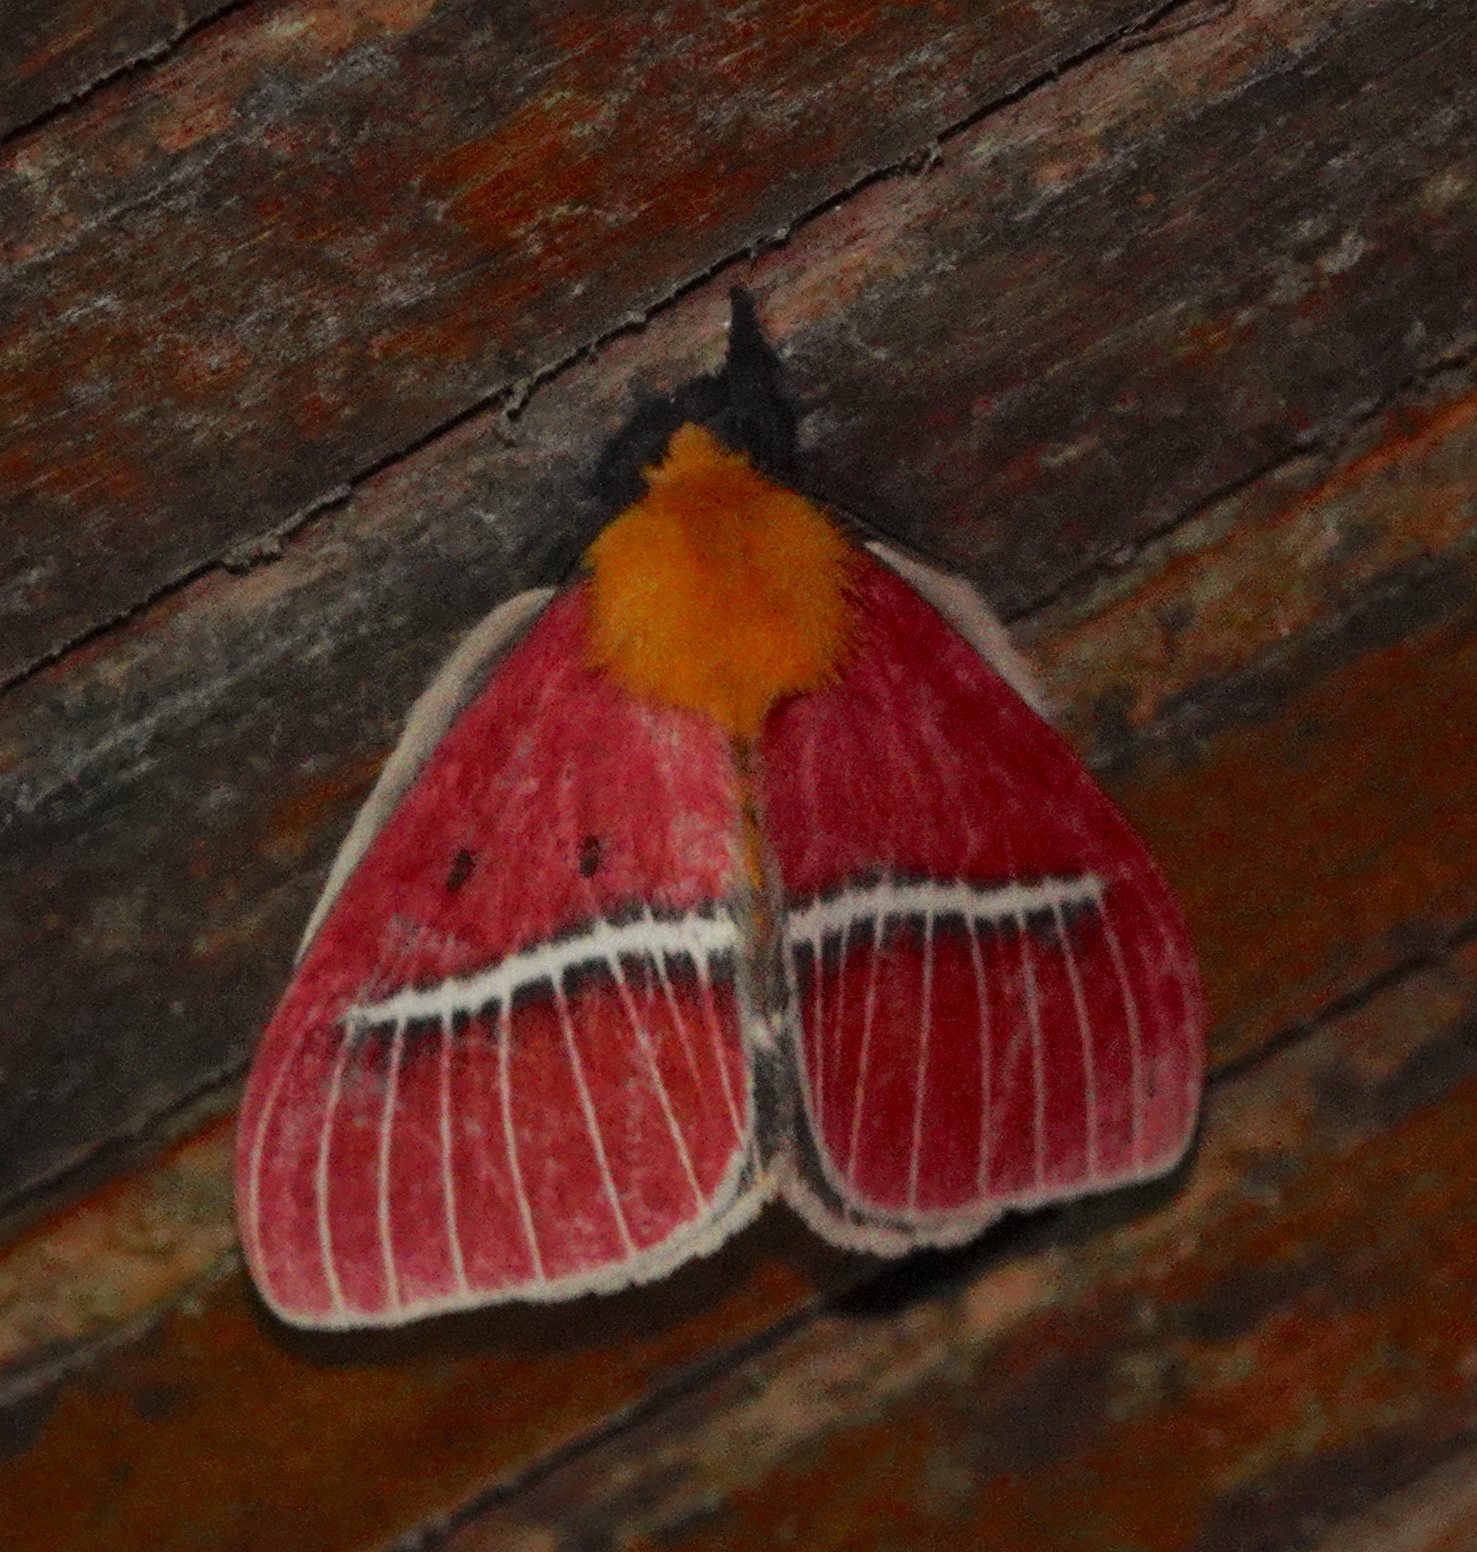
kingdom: Animalia
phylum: Arthropoda
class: Insecta
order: Lepidoptera
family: Saturniidae
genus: Pseudodirphia
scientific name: Pseudodirphia menander
